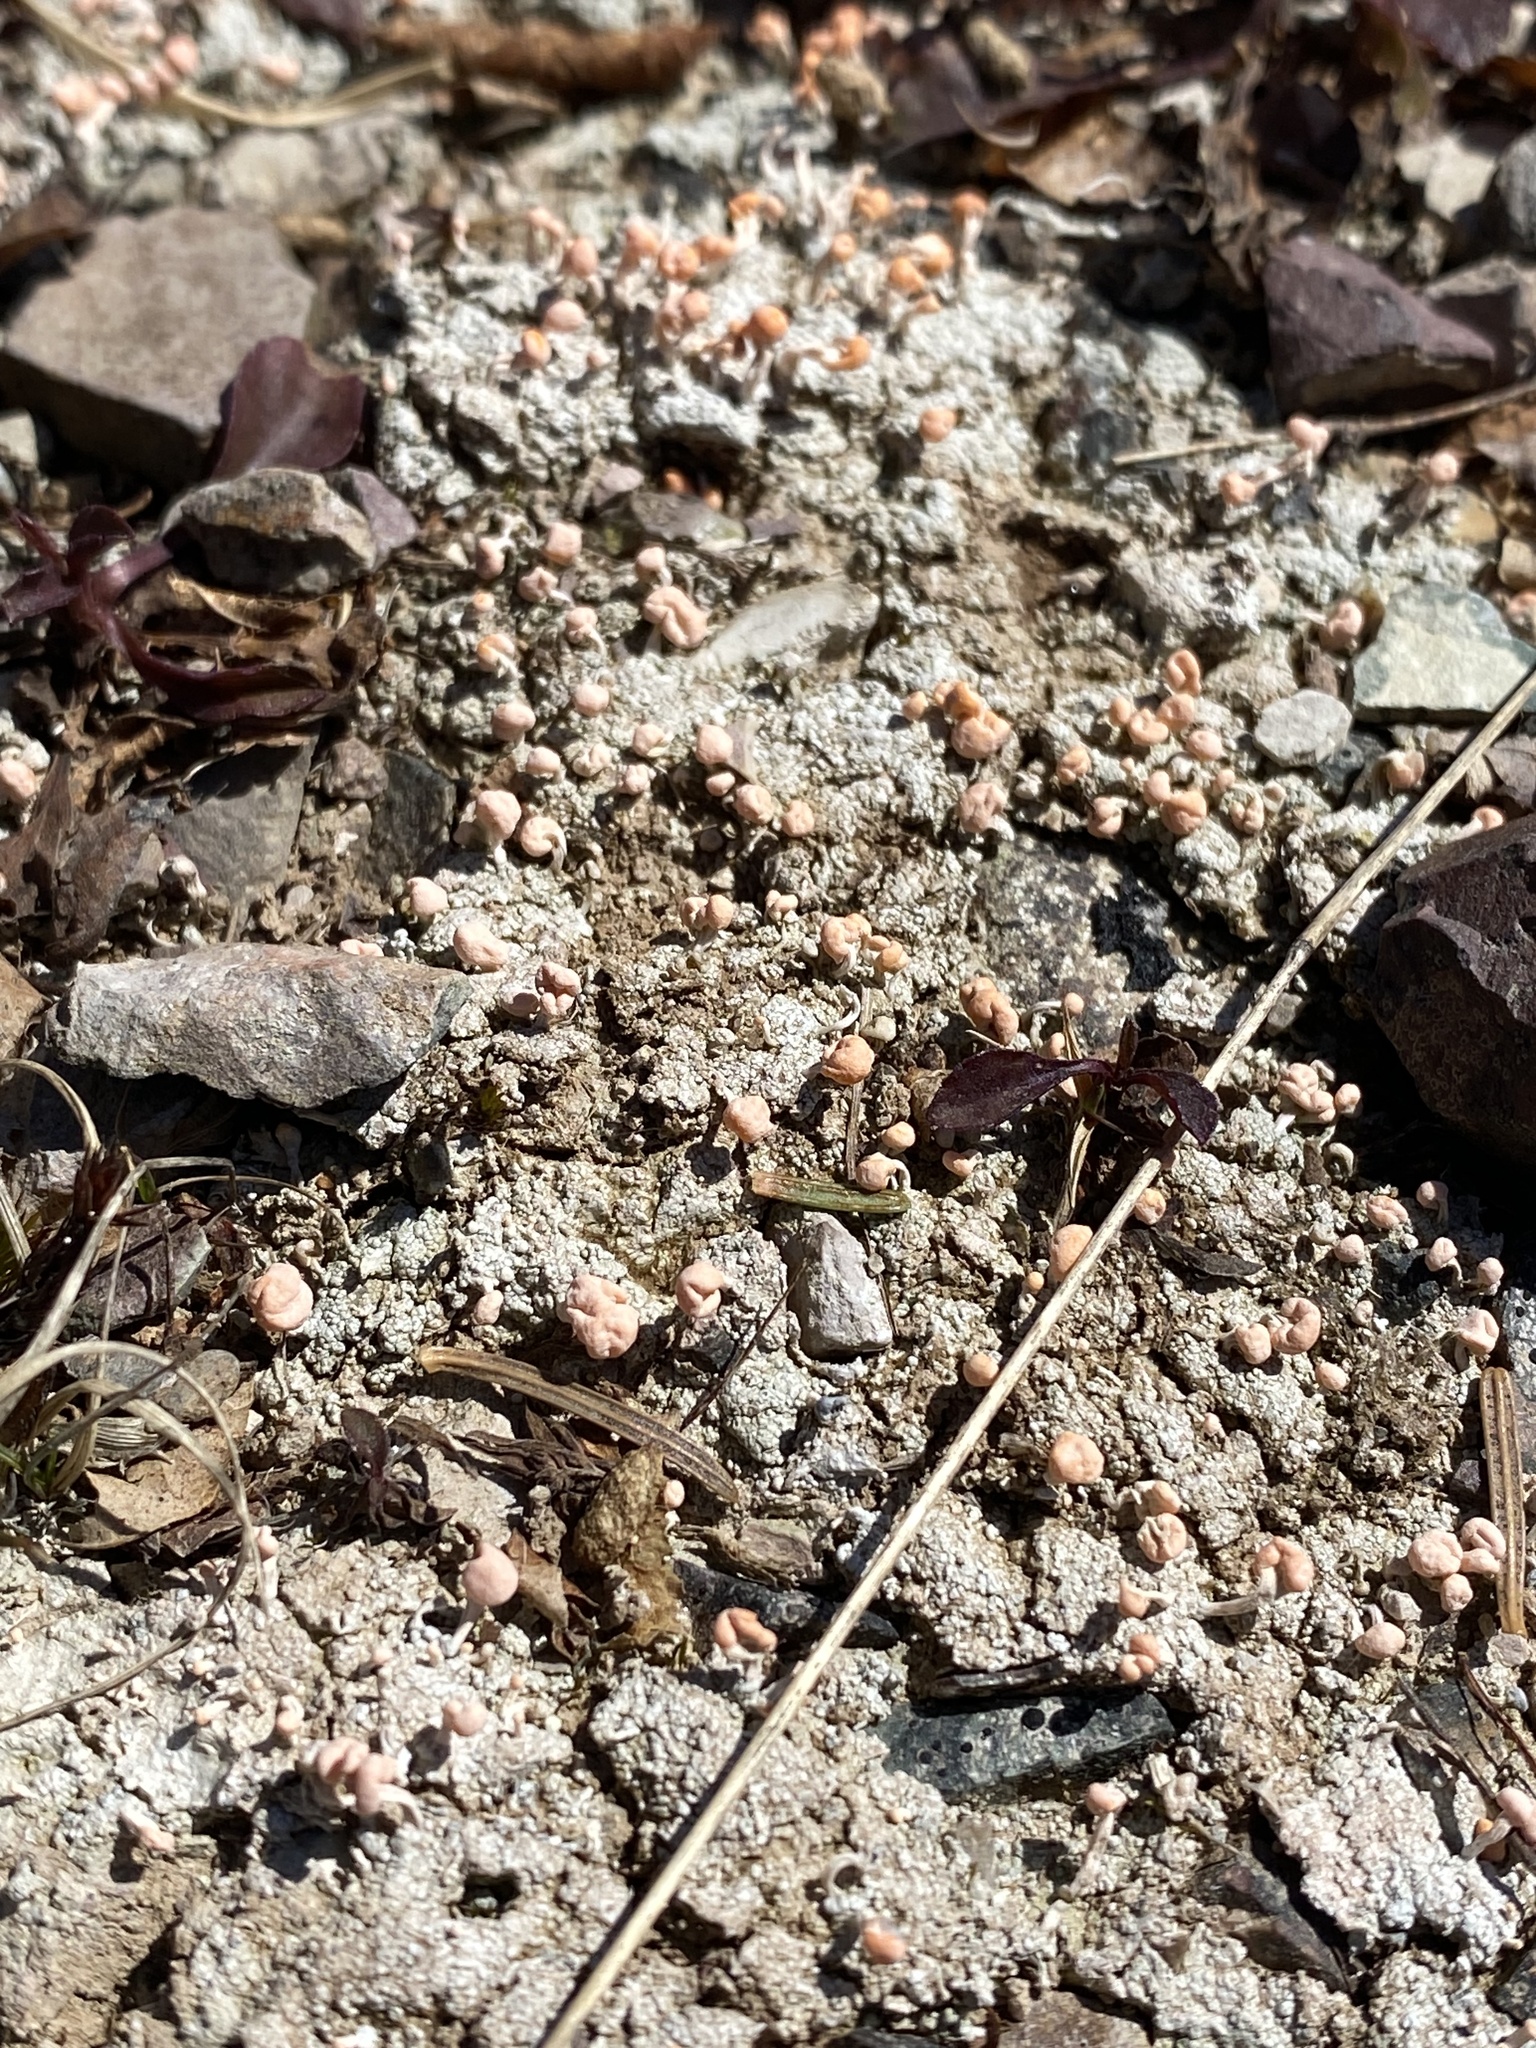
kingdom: Fungi
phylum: Ascomycota
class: Lecanoromycetes
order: Pertusariales
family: Icmadophilaceae
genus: Dibaeis
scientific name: Dibaeis baeomyces
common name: Pink earth lichen
